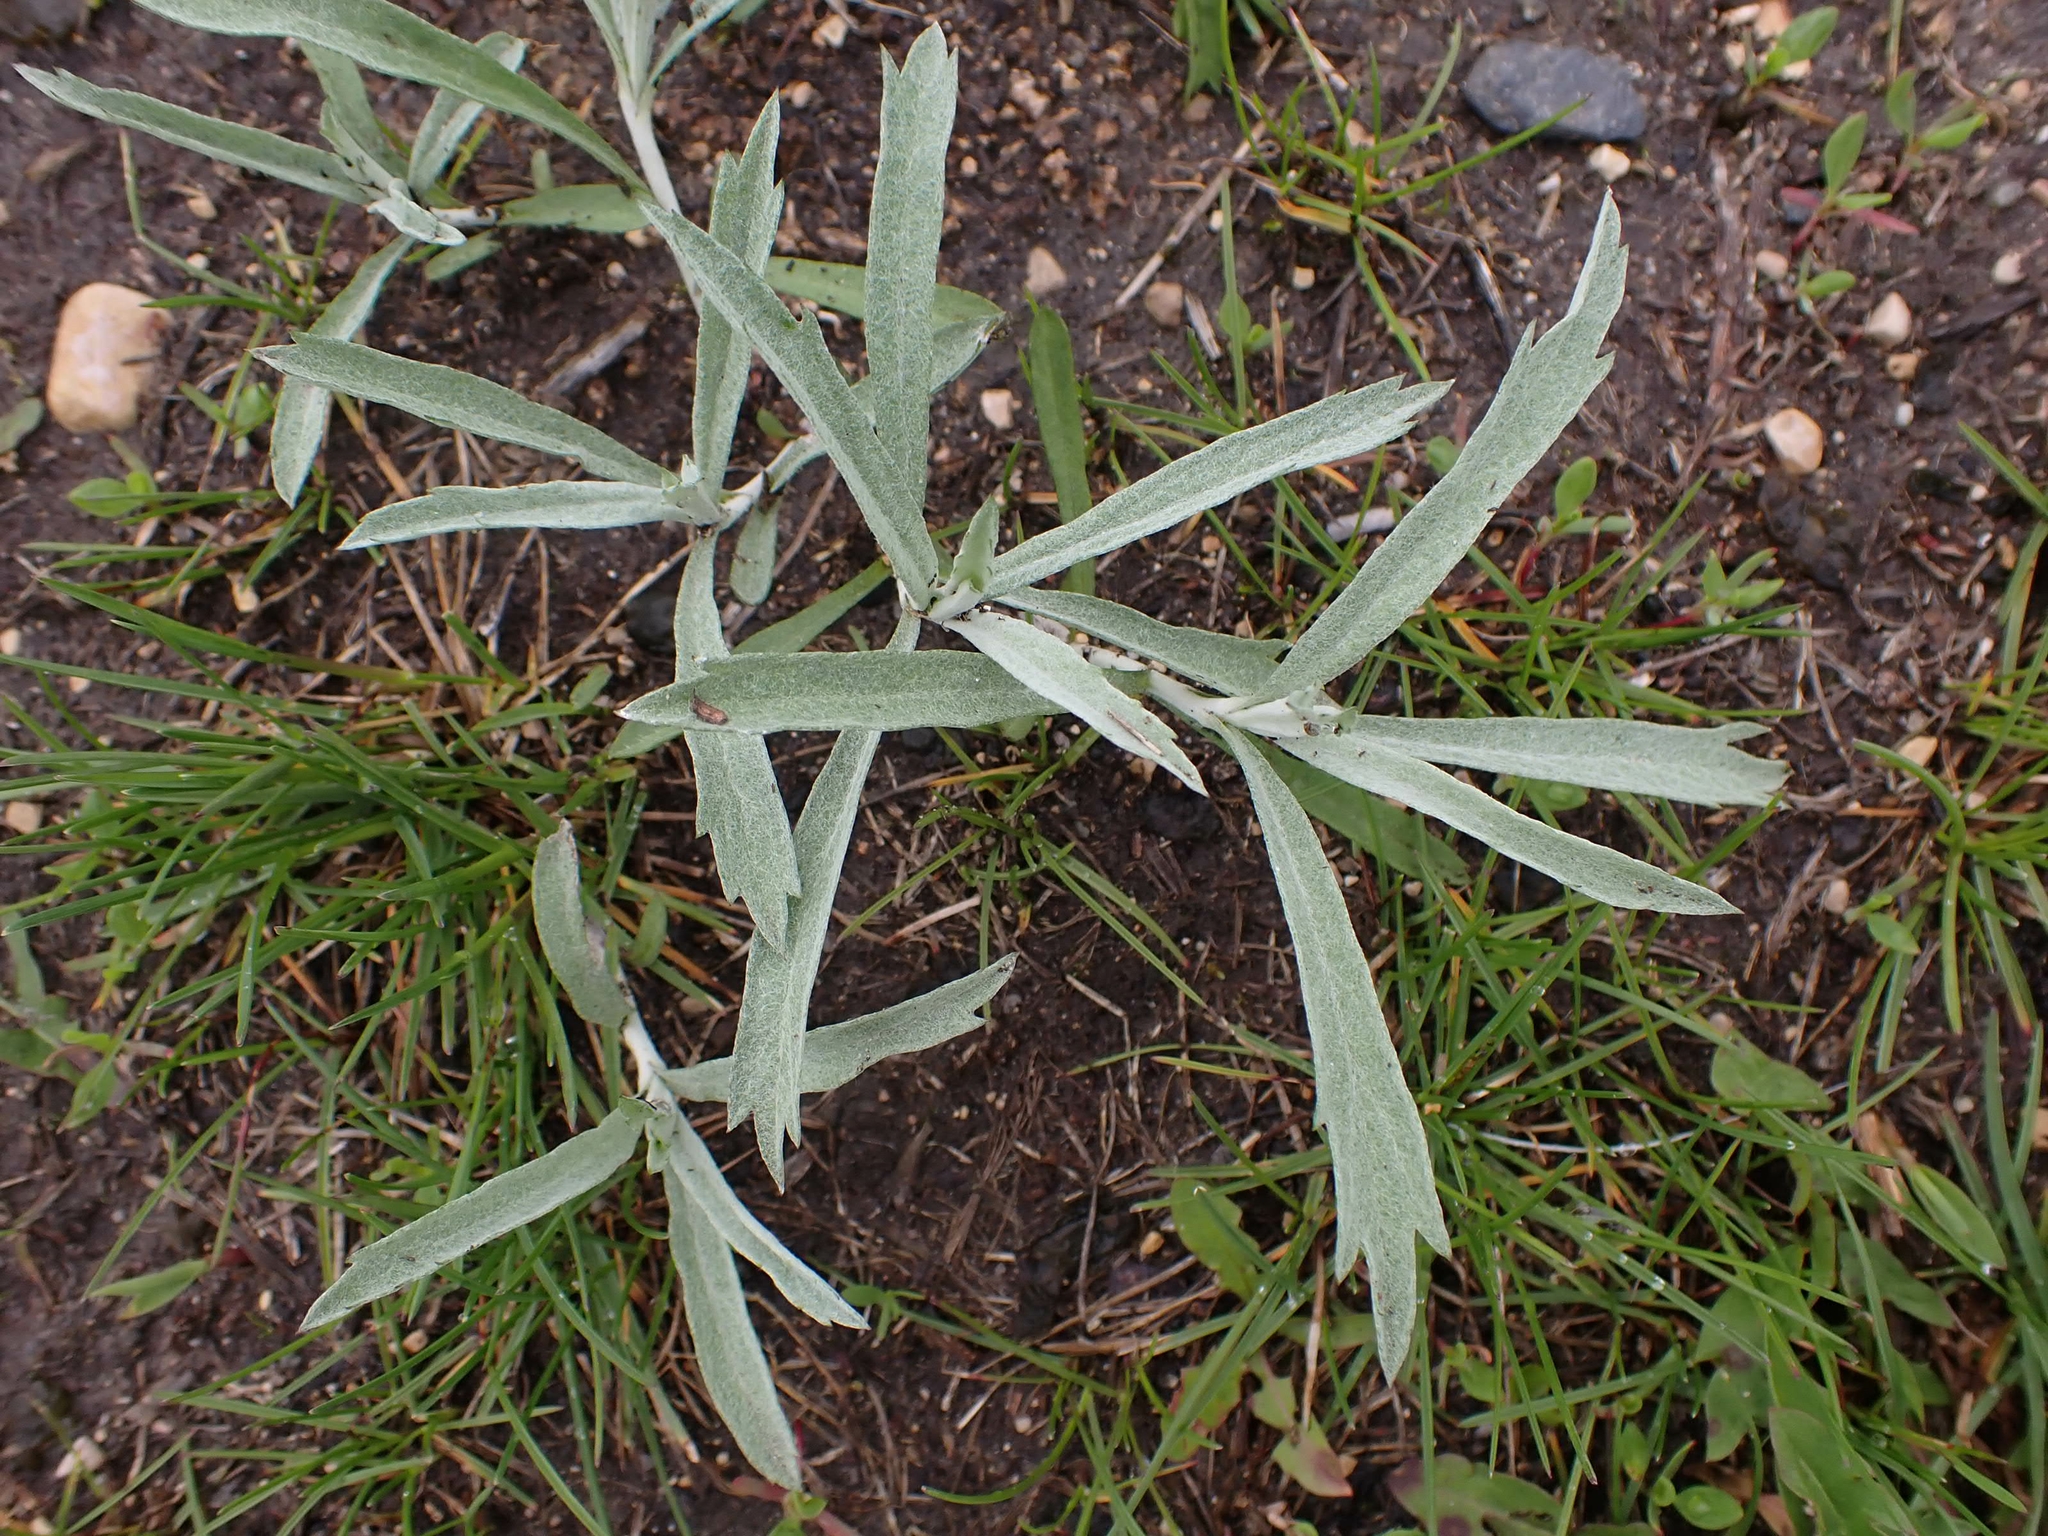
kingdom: Plantae
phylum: Tracheophyta
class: Magnoliopsida
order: Asterales
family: Asteraceae
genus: Artemisia
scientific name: Artemisia ludoviciana
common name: Western mugwort
